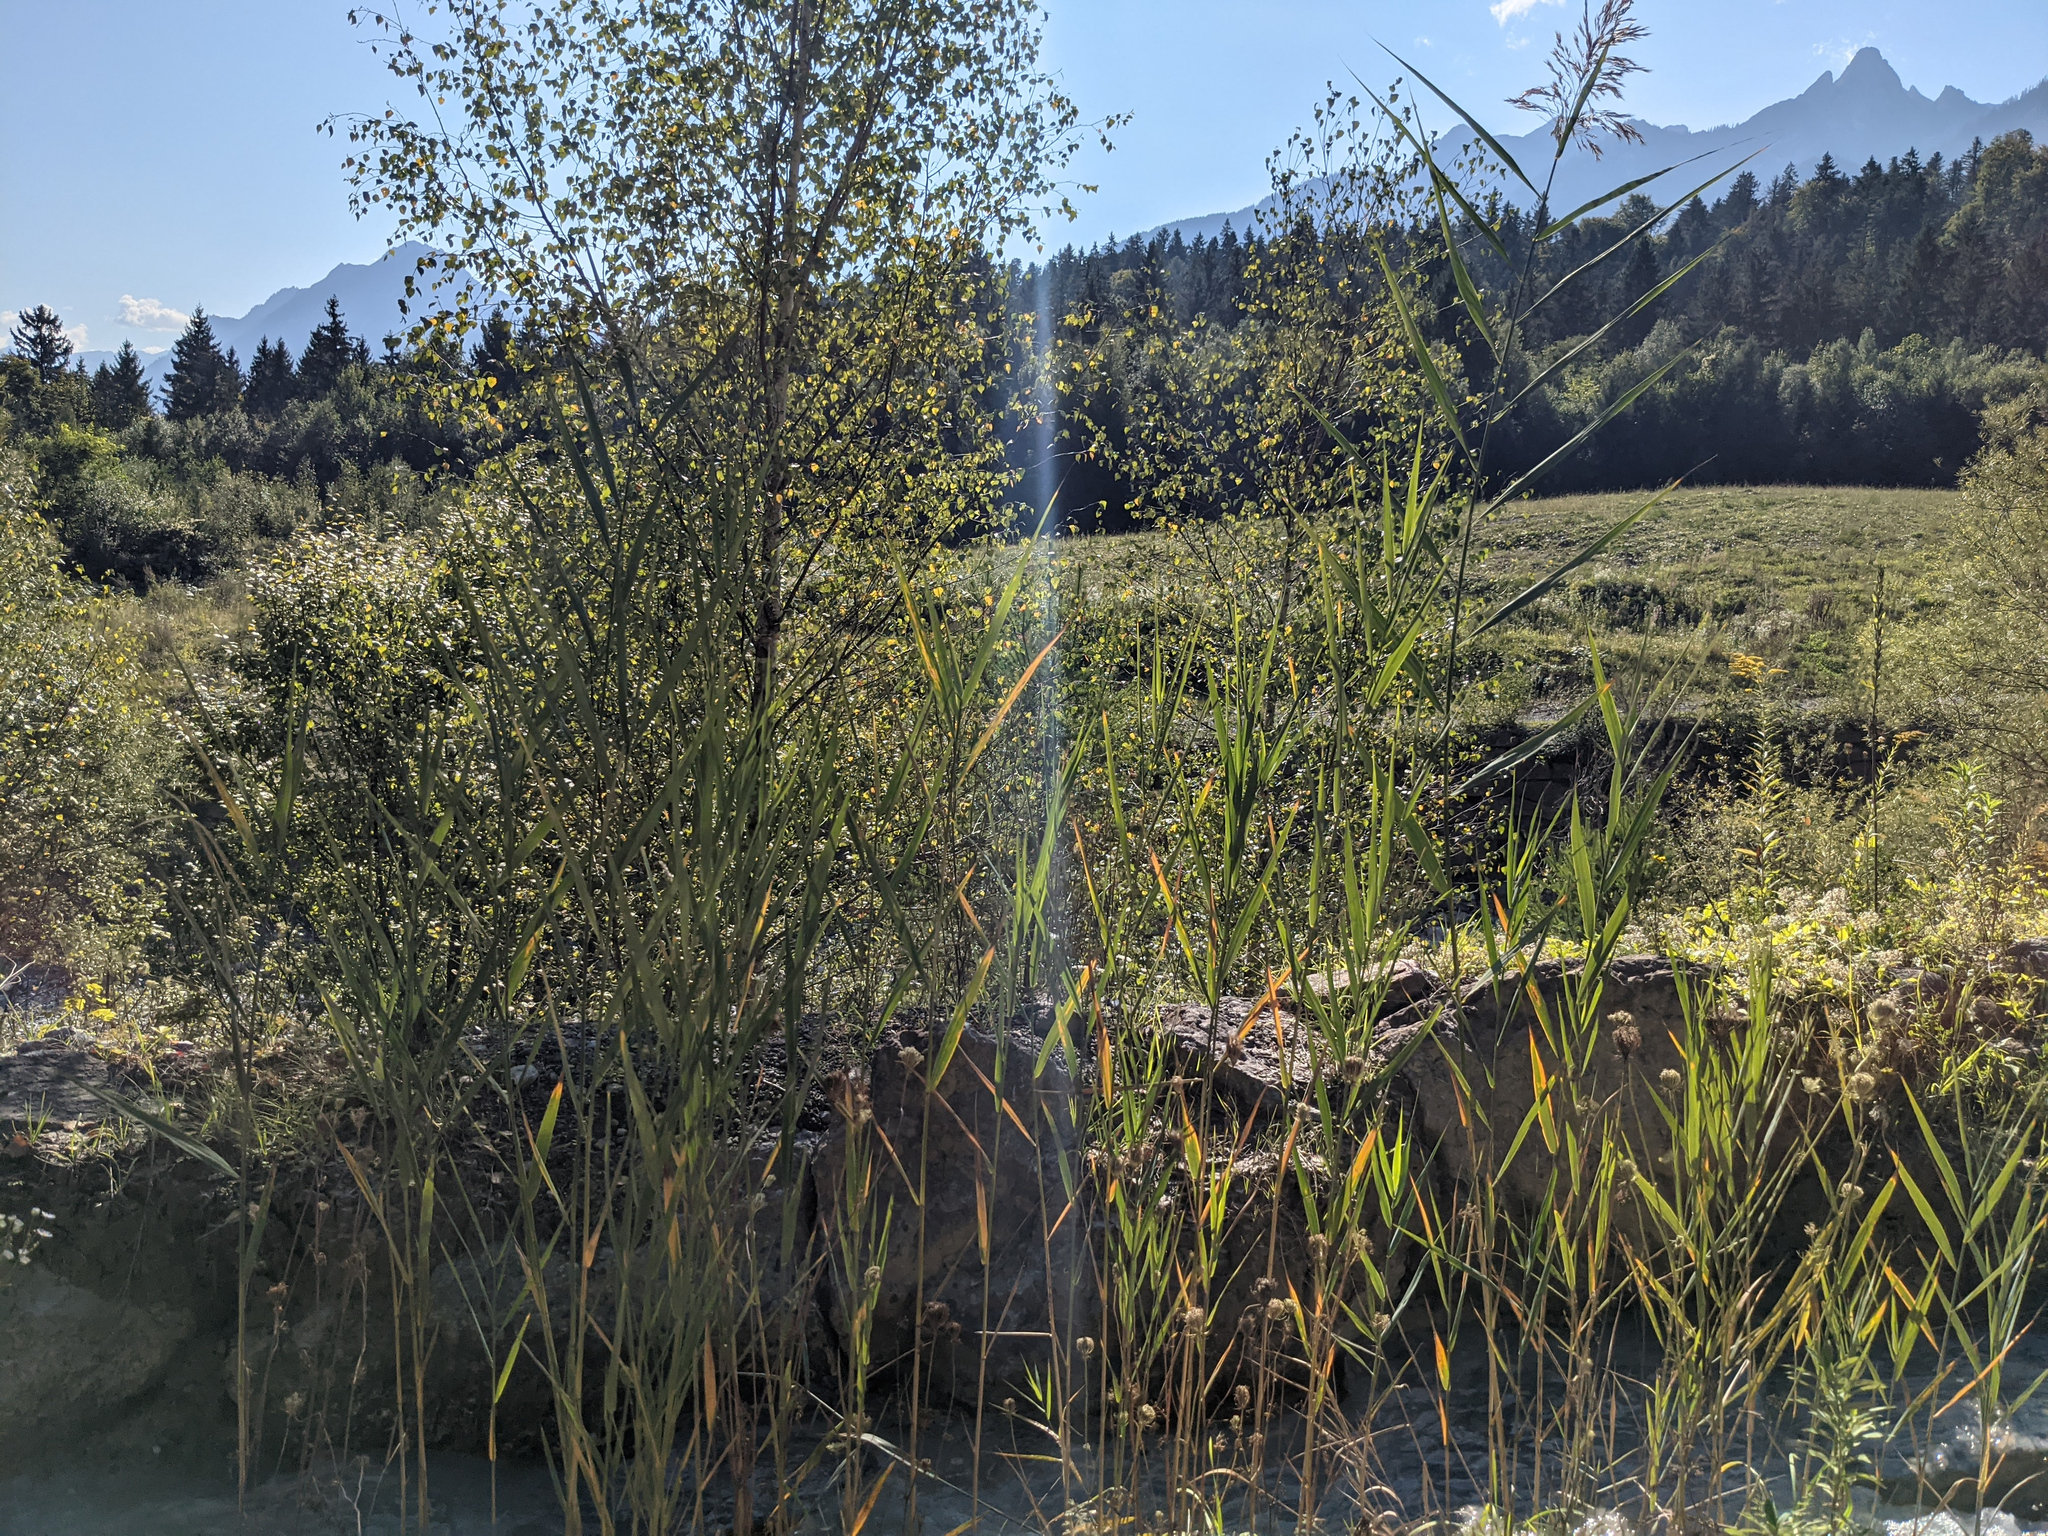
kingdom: Plantae
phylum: Tracheophyta
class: Liliopsida
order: Poales
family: Poaceae
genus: Phragmites
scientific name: Phragmites australis
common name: Common reed
